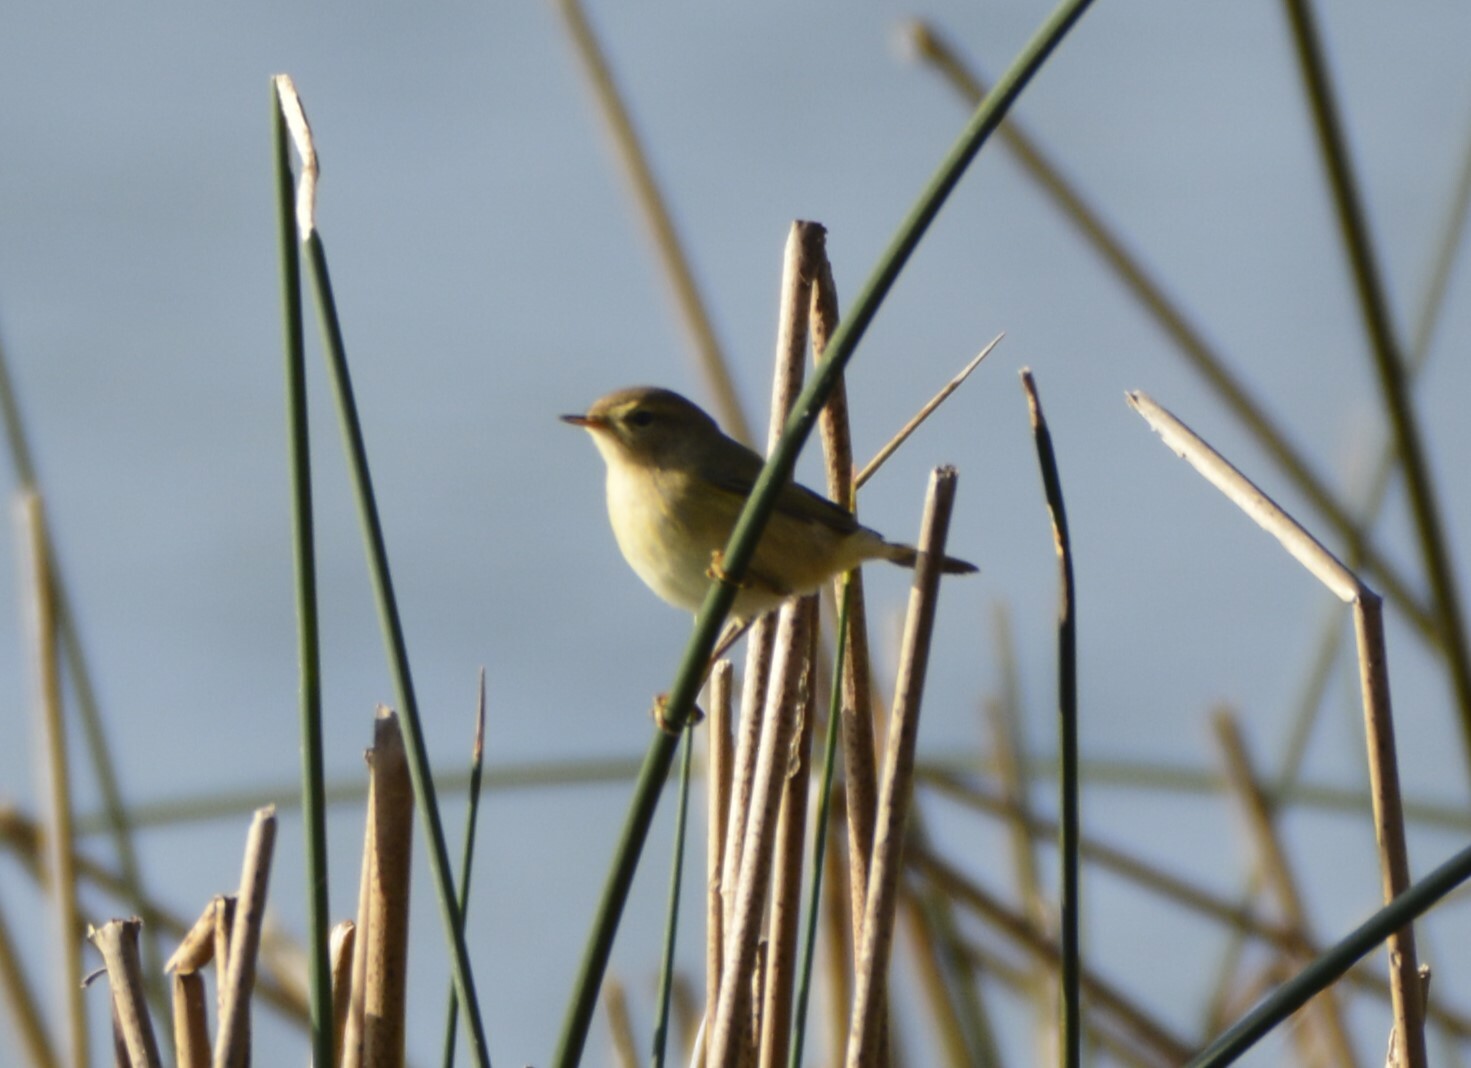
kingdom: Animalia
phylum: Chordata
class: Aves
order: Passeriformes
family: Phylloscopidae
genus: Phylloscopus
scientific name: Phylloscopus collybita
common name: Common chiffchaff
